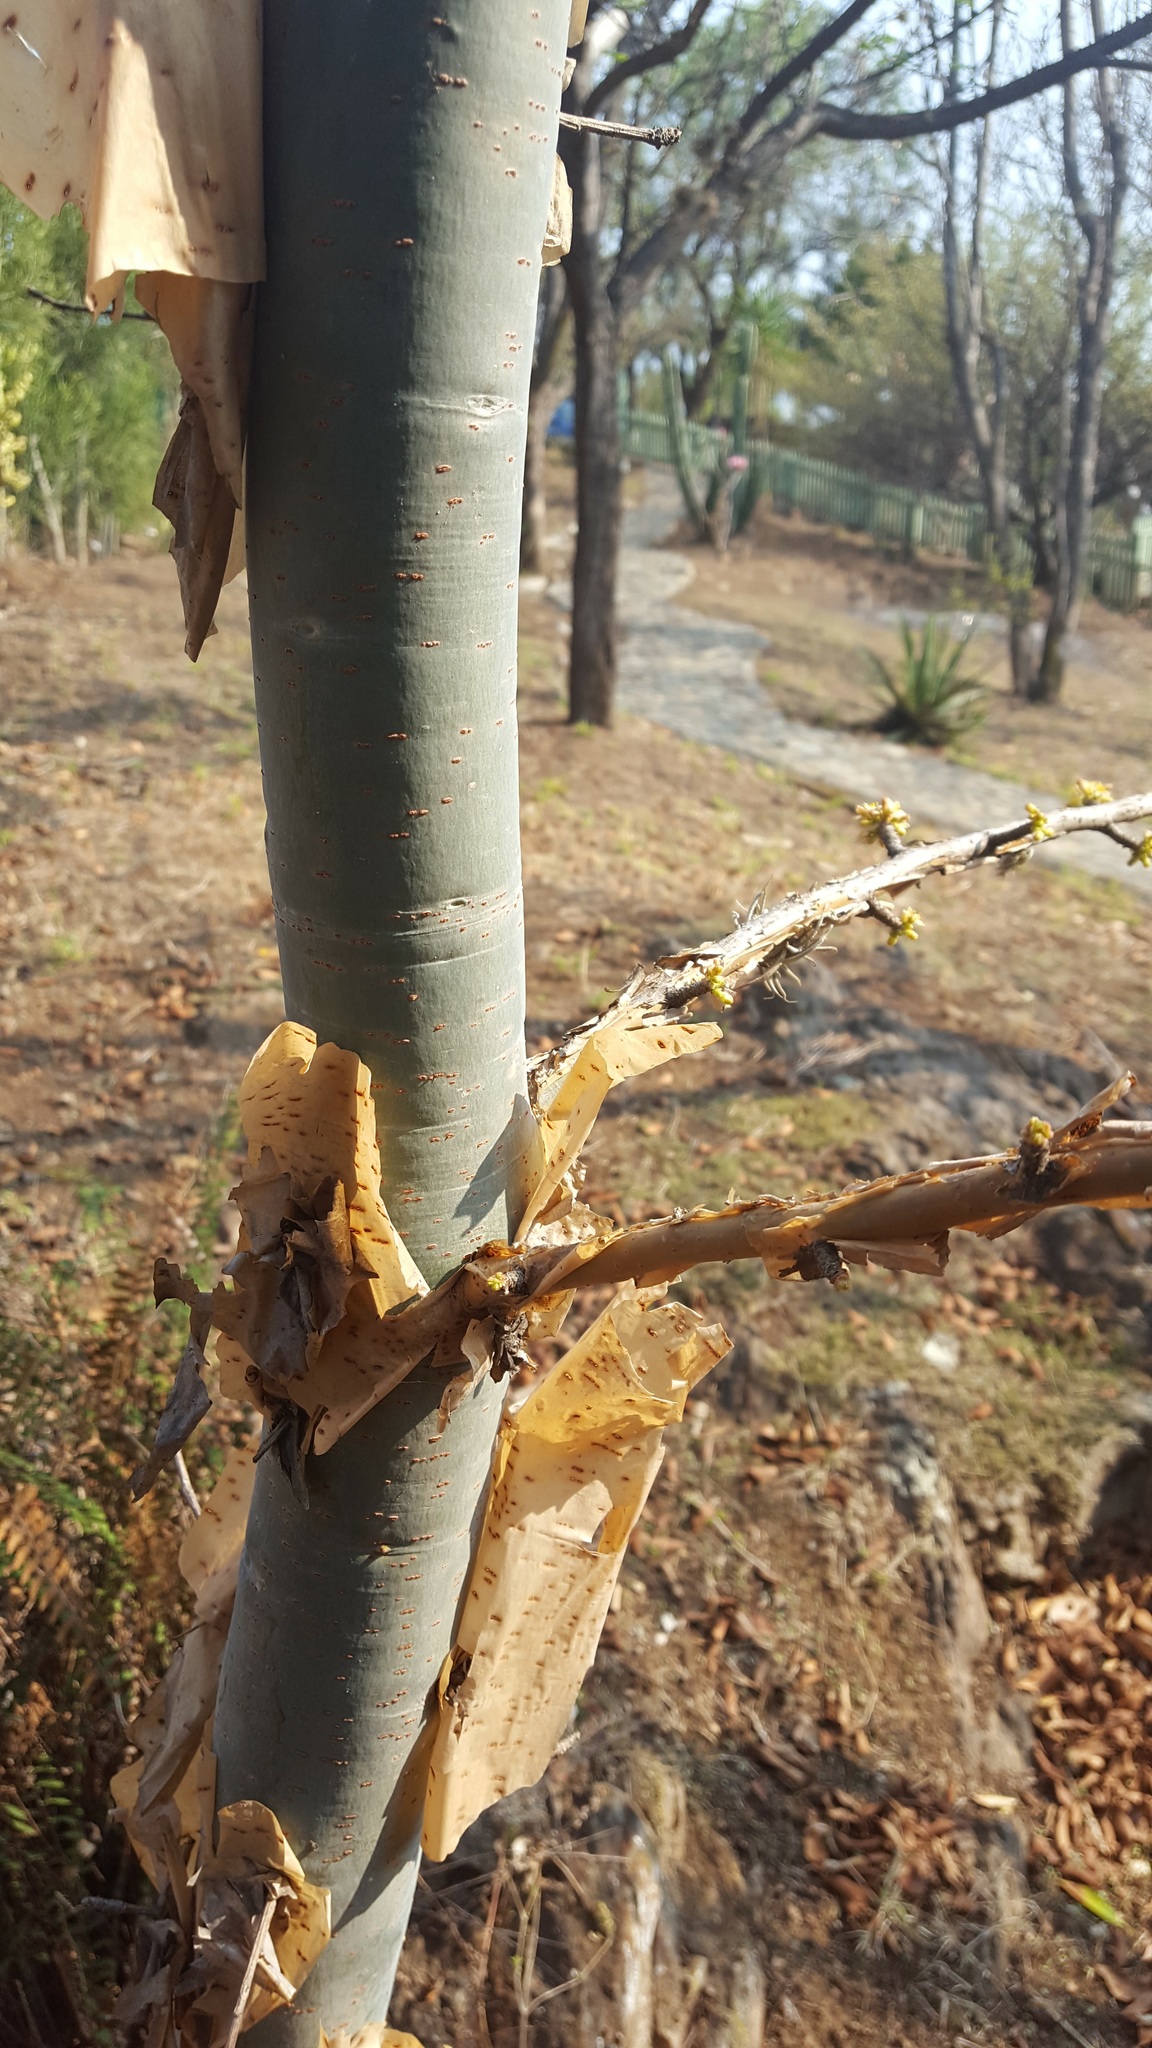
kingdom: Plantae
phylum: Tracheophyta
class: Magnoliopsida
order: Sapindales
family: Burseraceae
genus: Bursera
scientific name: Bursera ariensis
